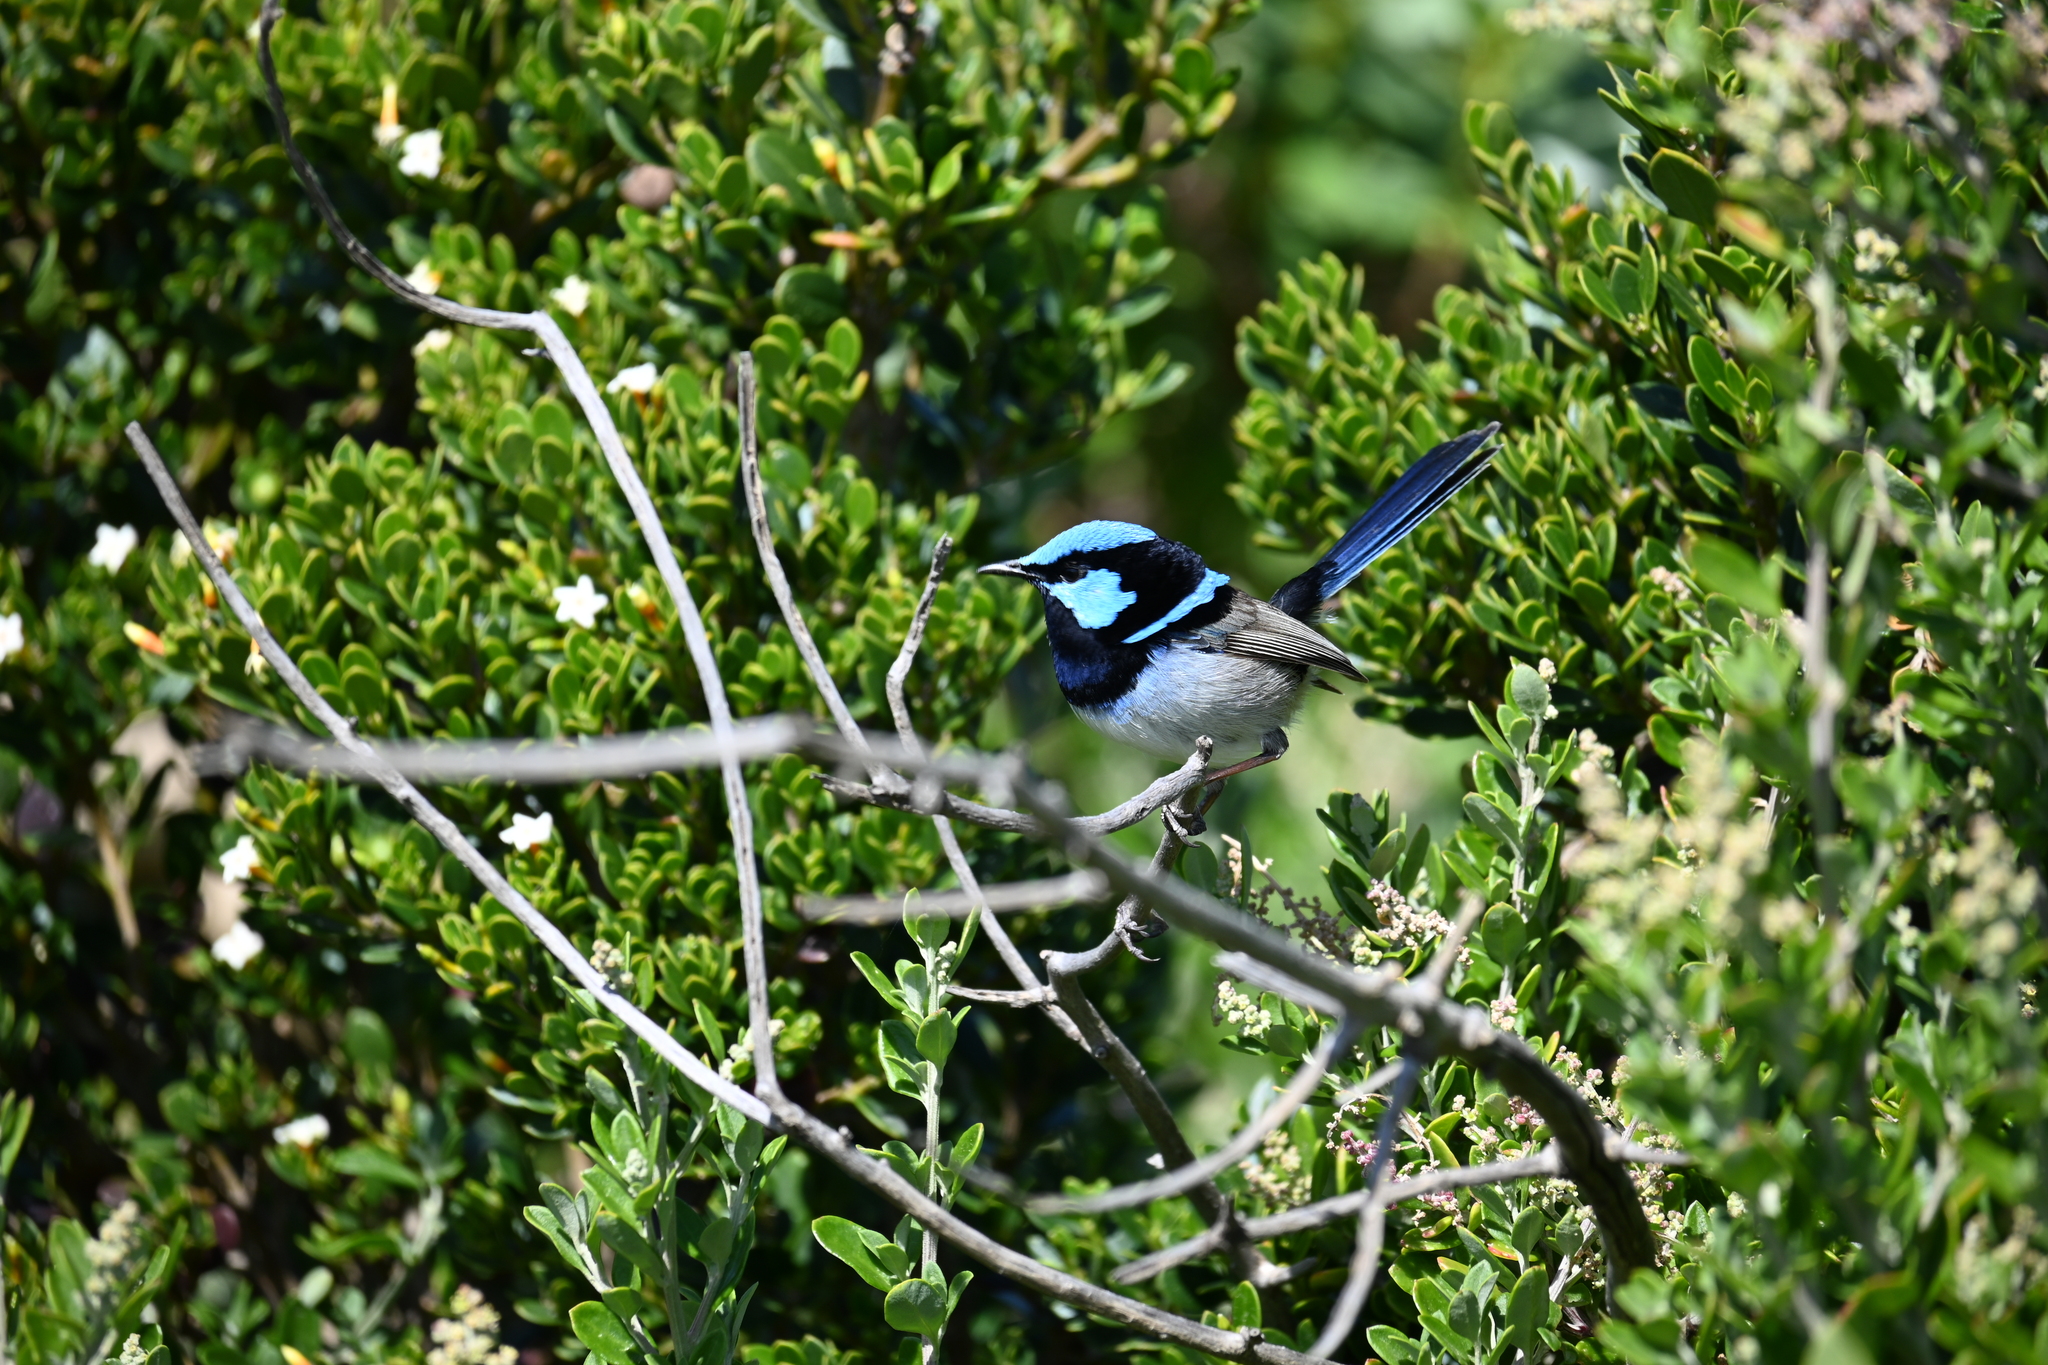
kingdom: Animalia
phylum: Chordata
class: Aves
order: Passeriformes
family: Maluridae
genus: Malurus
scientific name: Malurus cyaneus
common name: Superb fairywren
